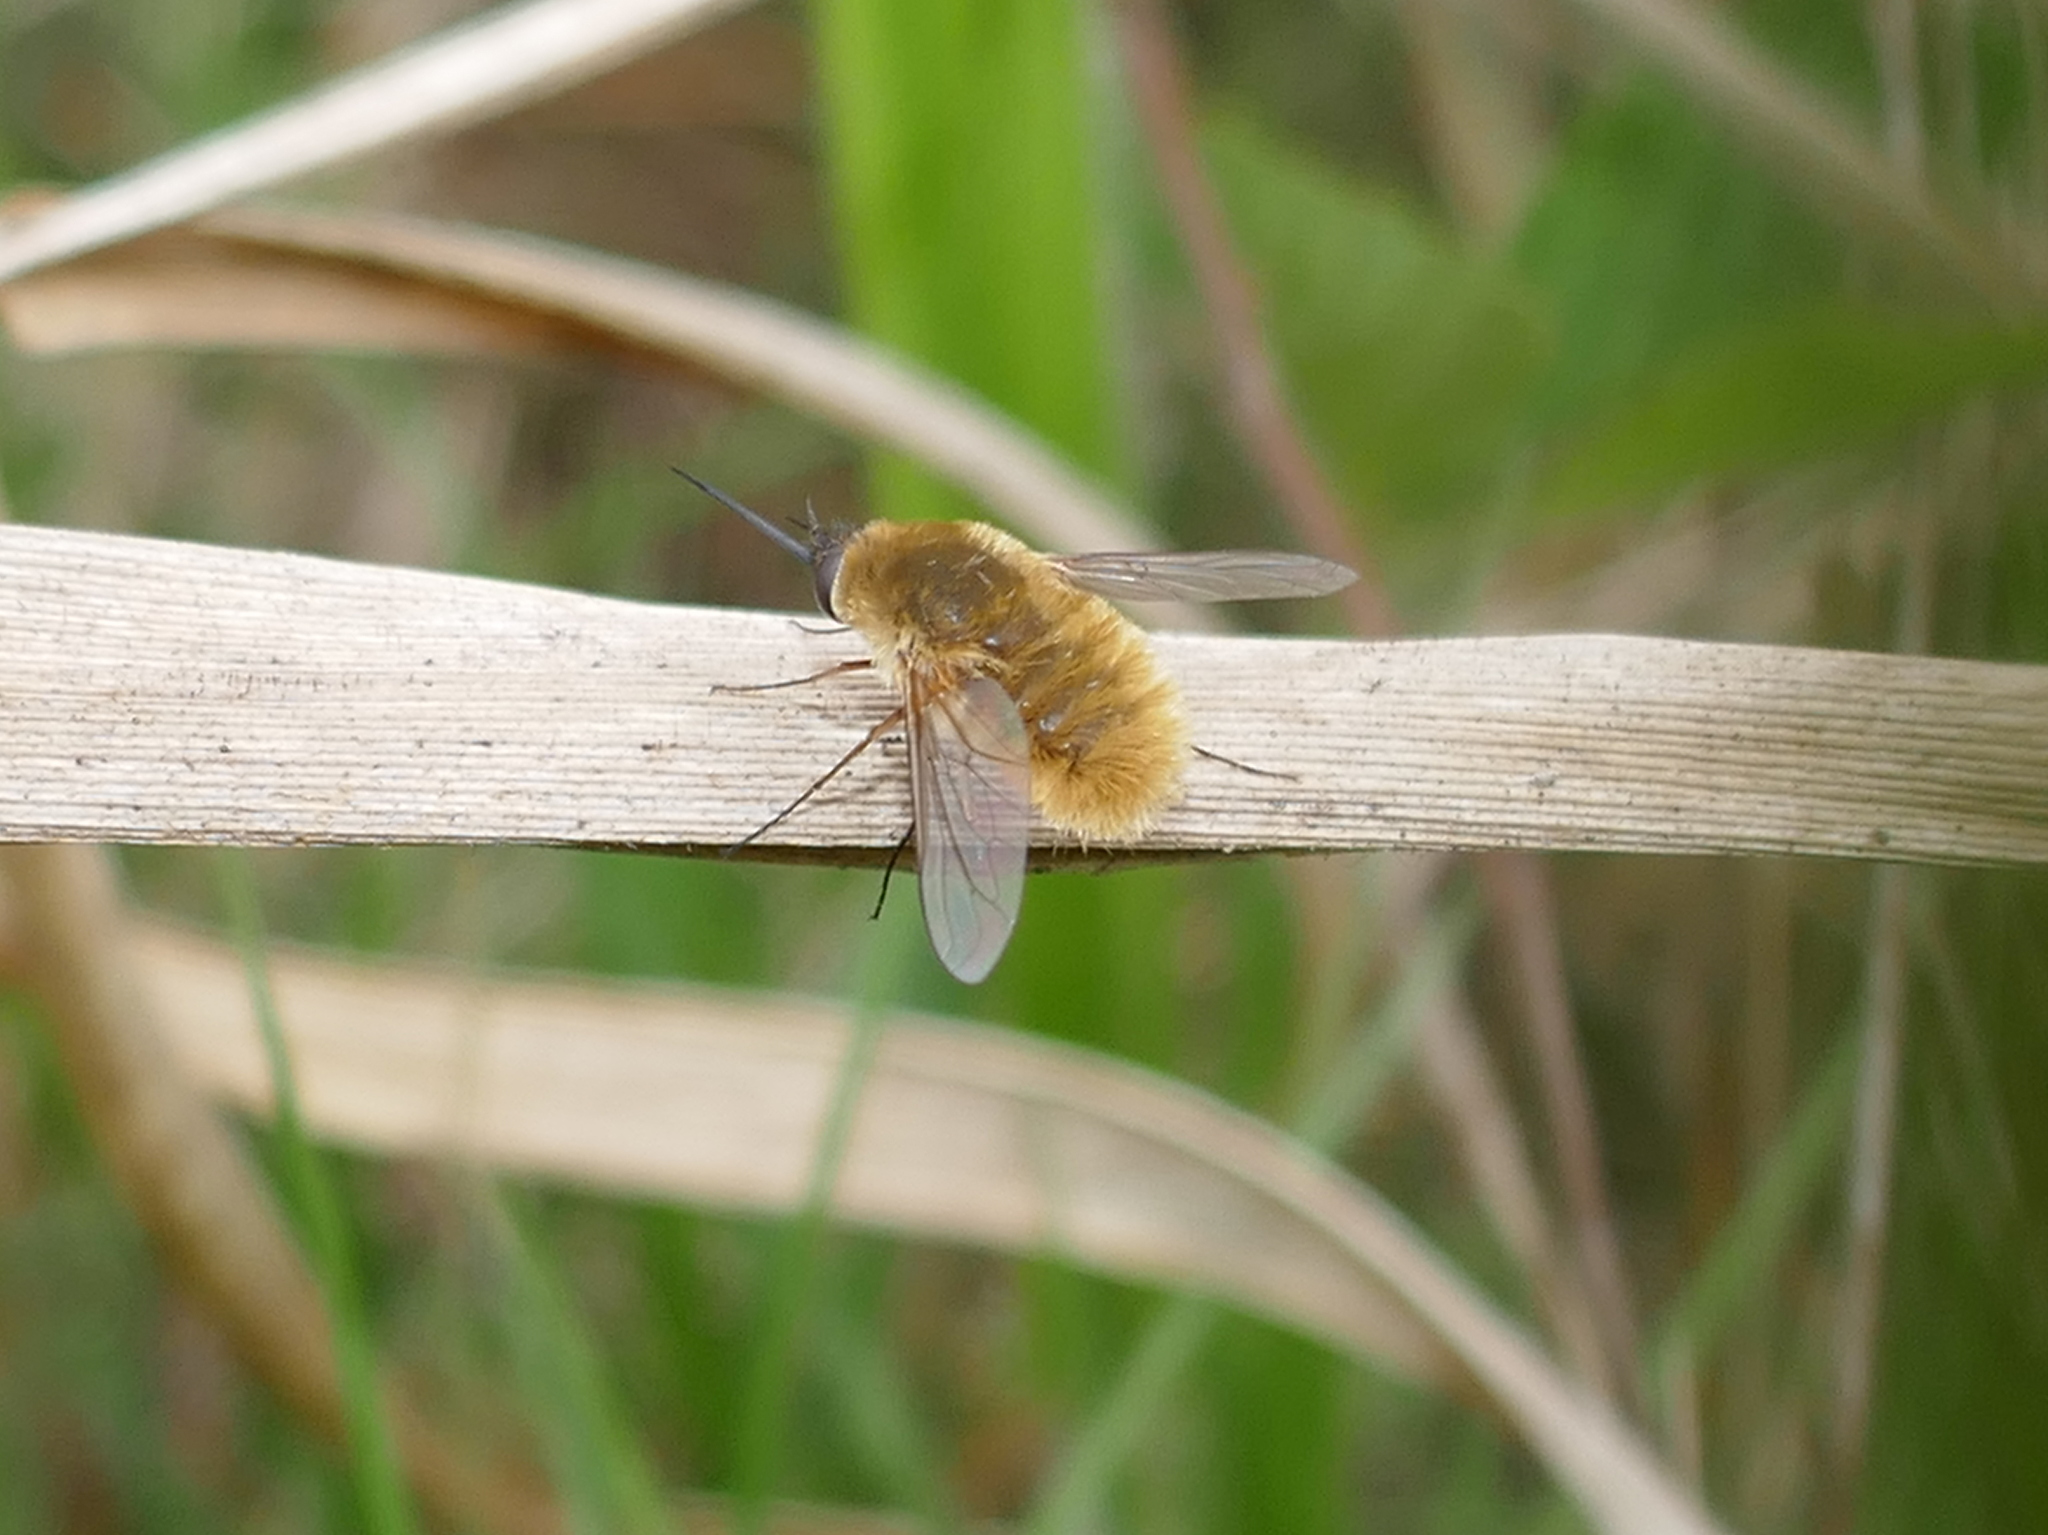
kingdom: Animalia
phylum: Arthropoda
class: Insecta
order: Diptera
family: Bombyliidae
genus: Systoechus
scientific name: Systoechus solitus
